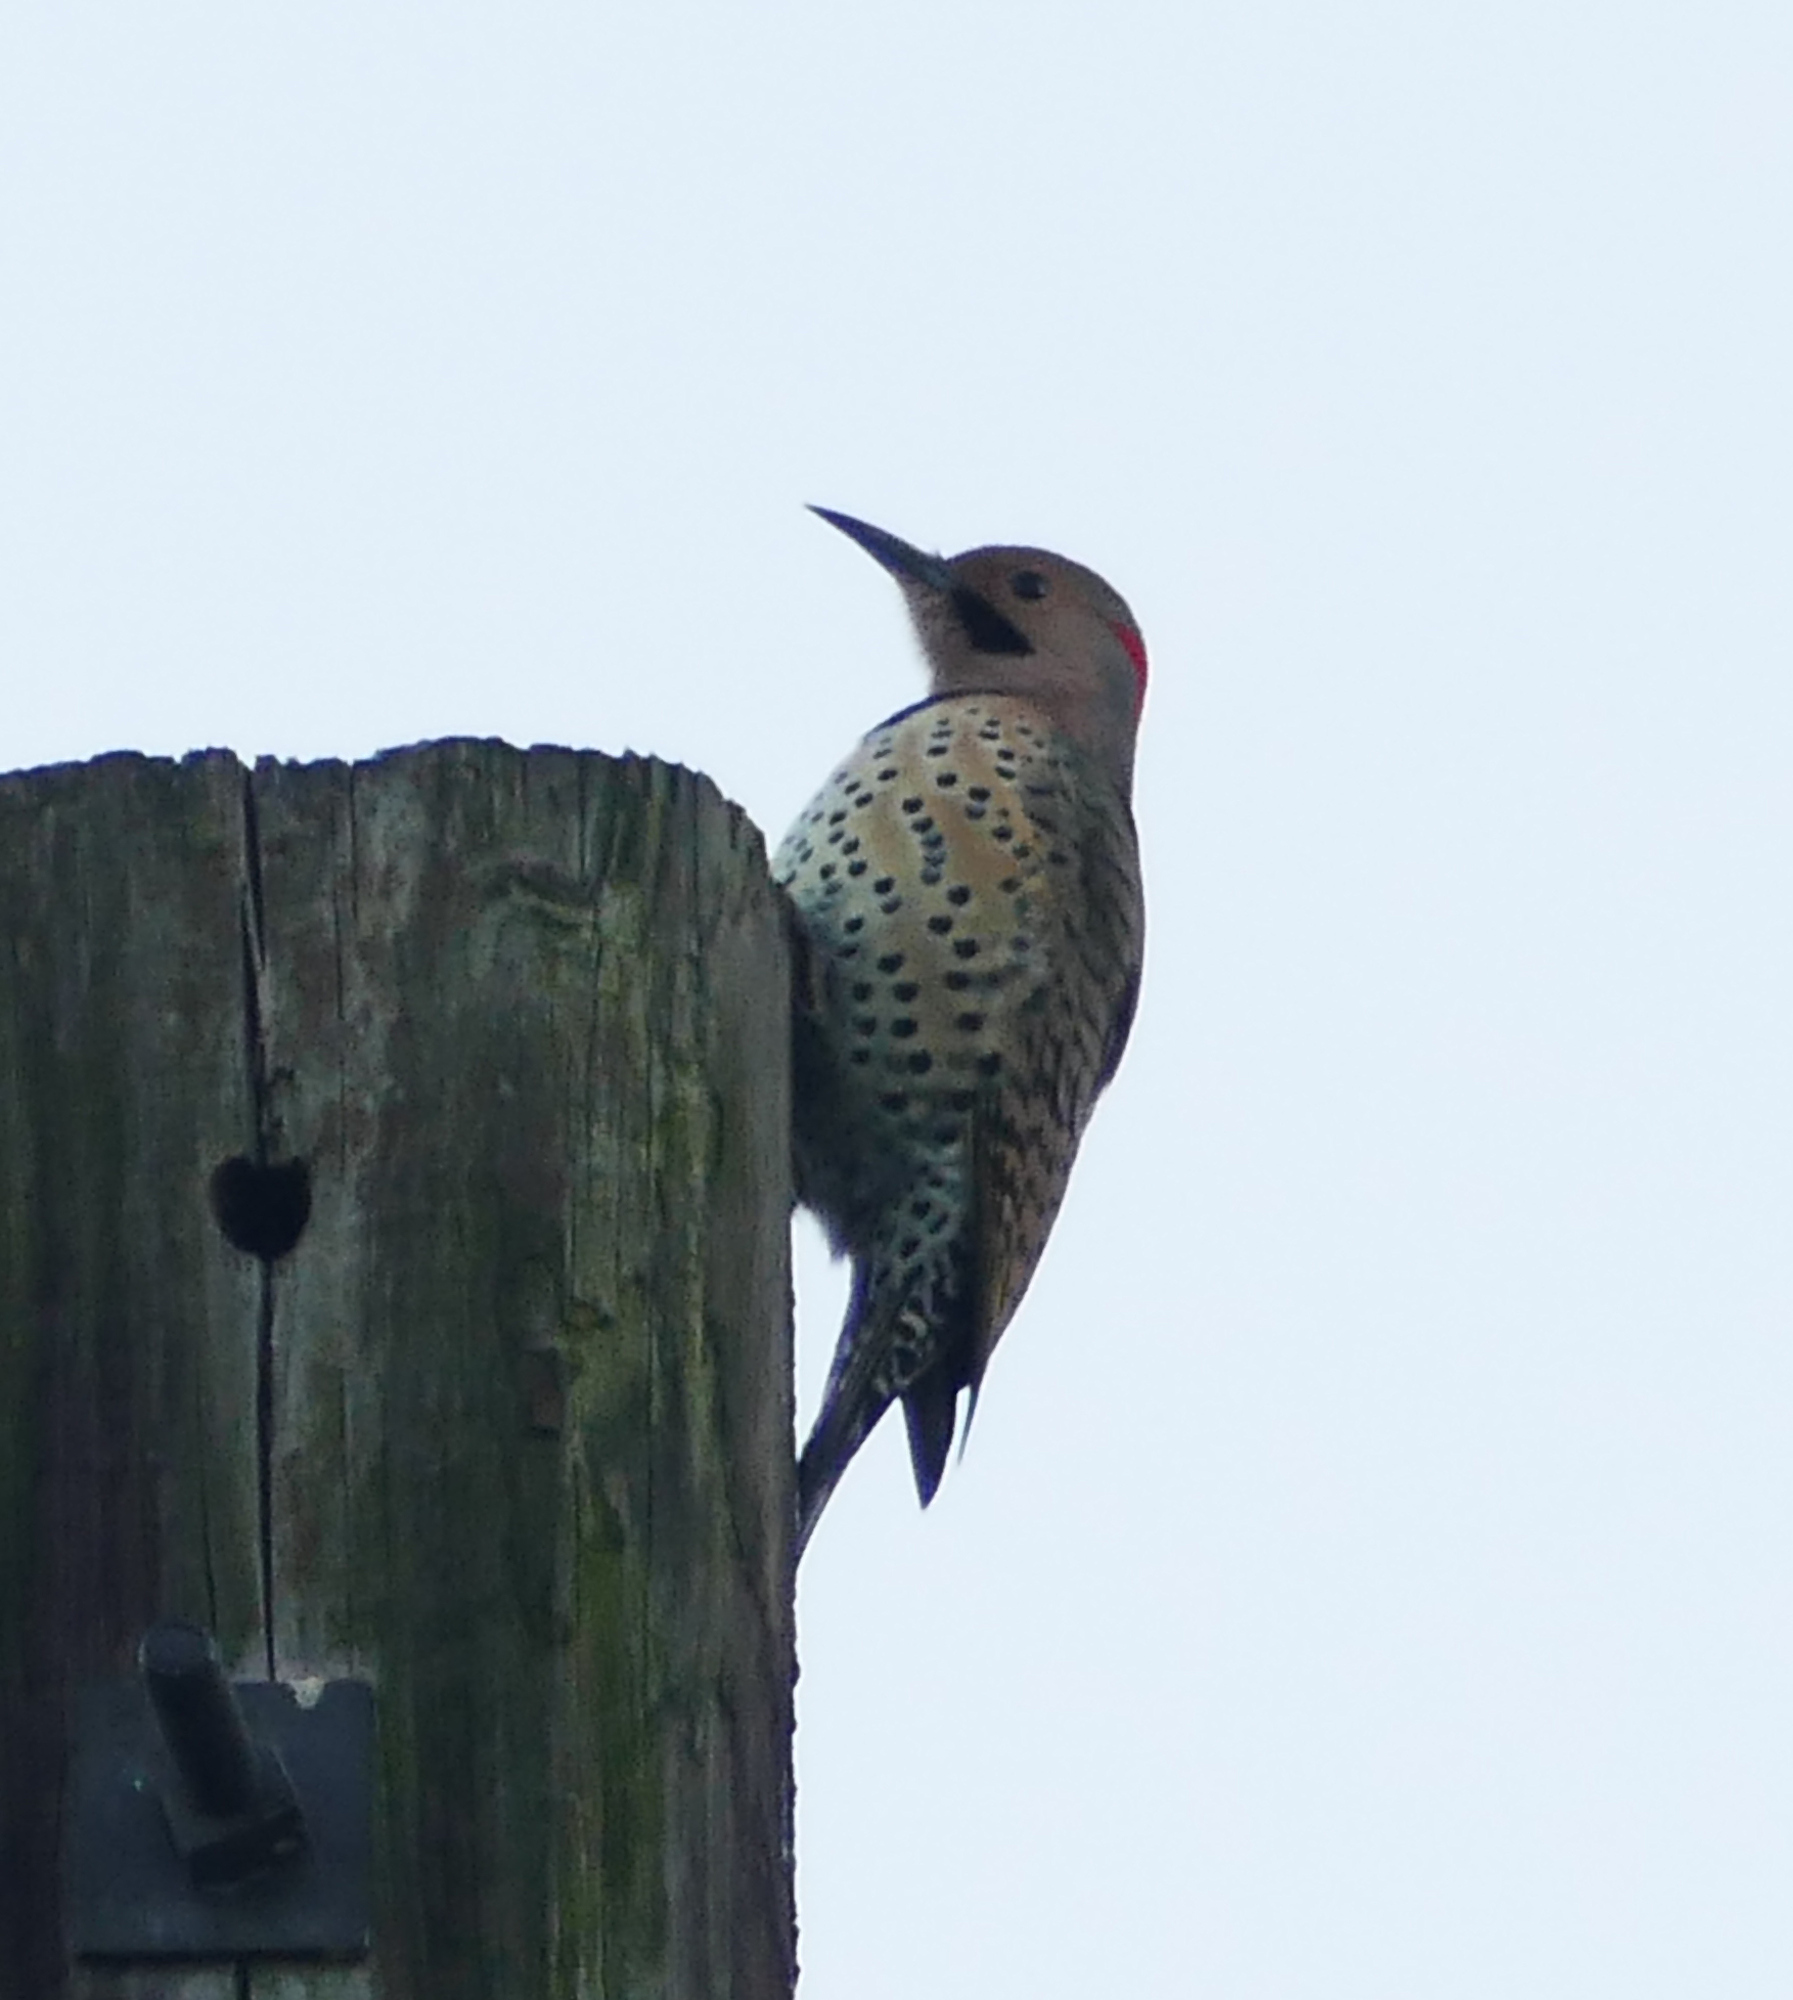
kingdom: Animalia
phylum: Chordata
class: Aves
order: Piciformes
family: Picidae
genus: Colaptes
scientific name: Colaptes auratus
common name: Northern flicker
